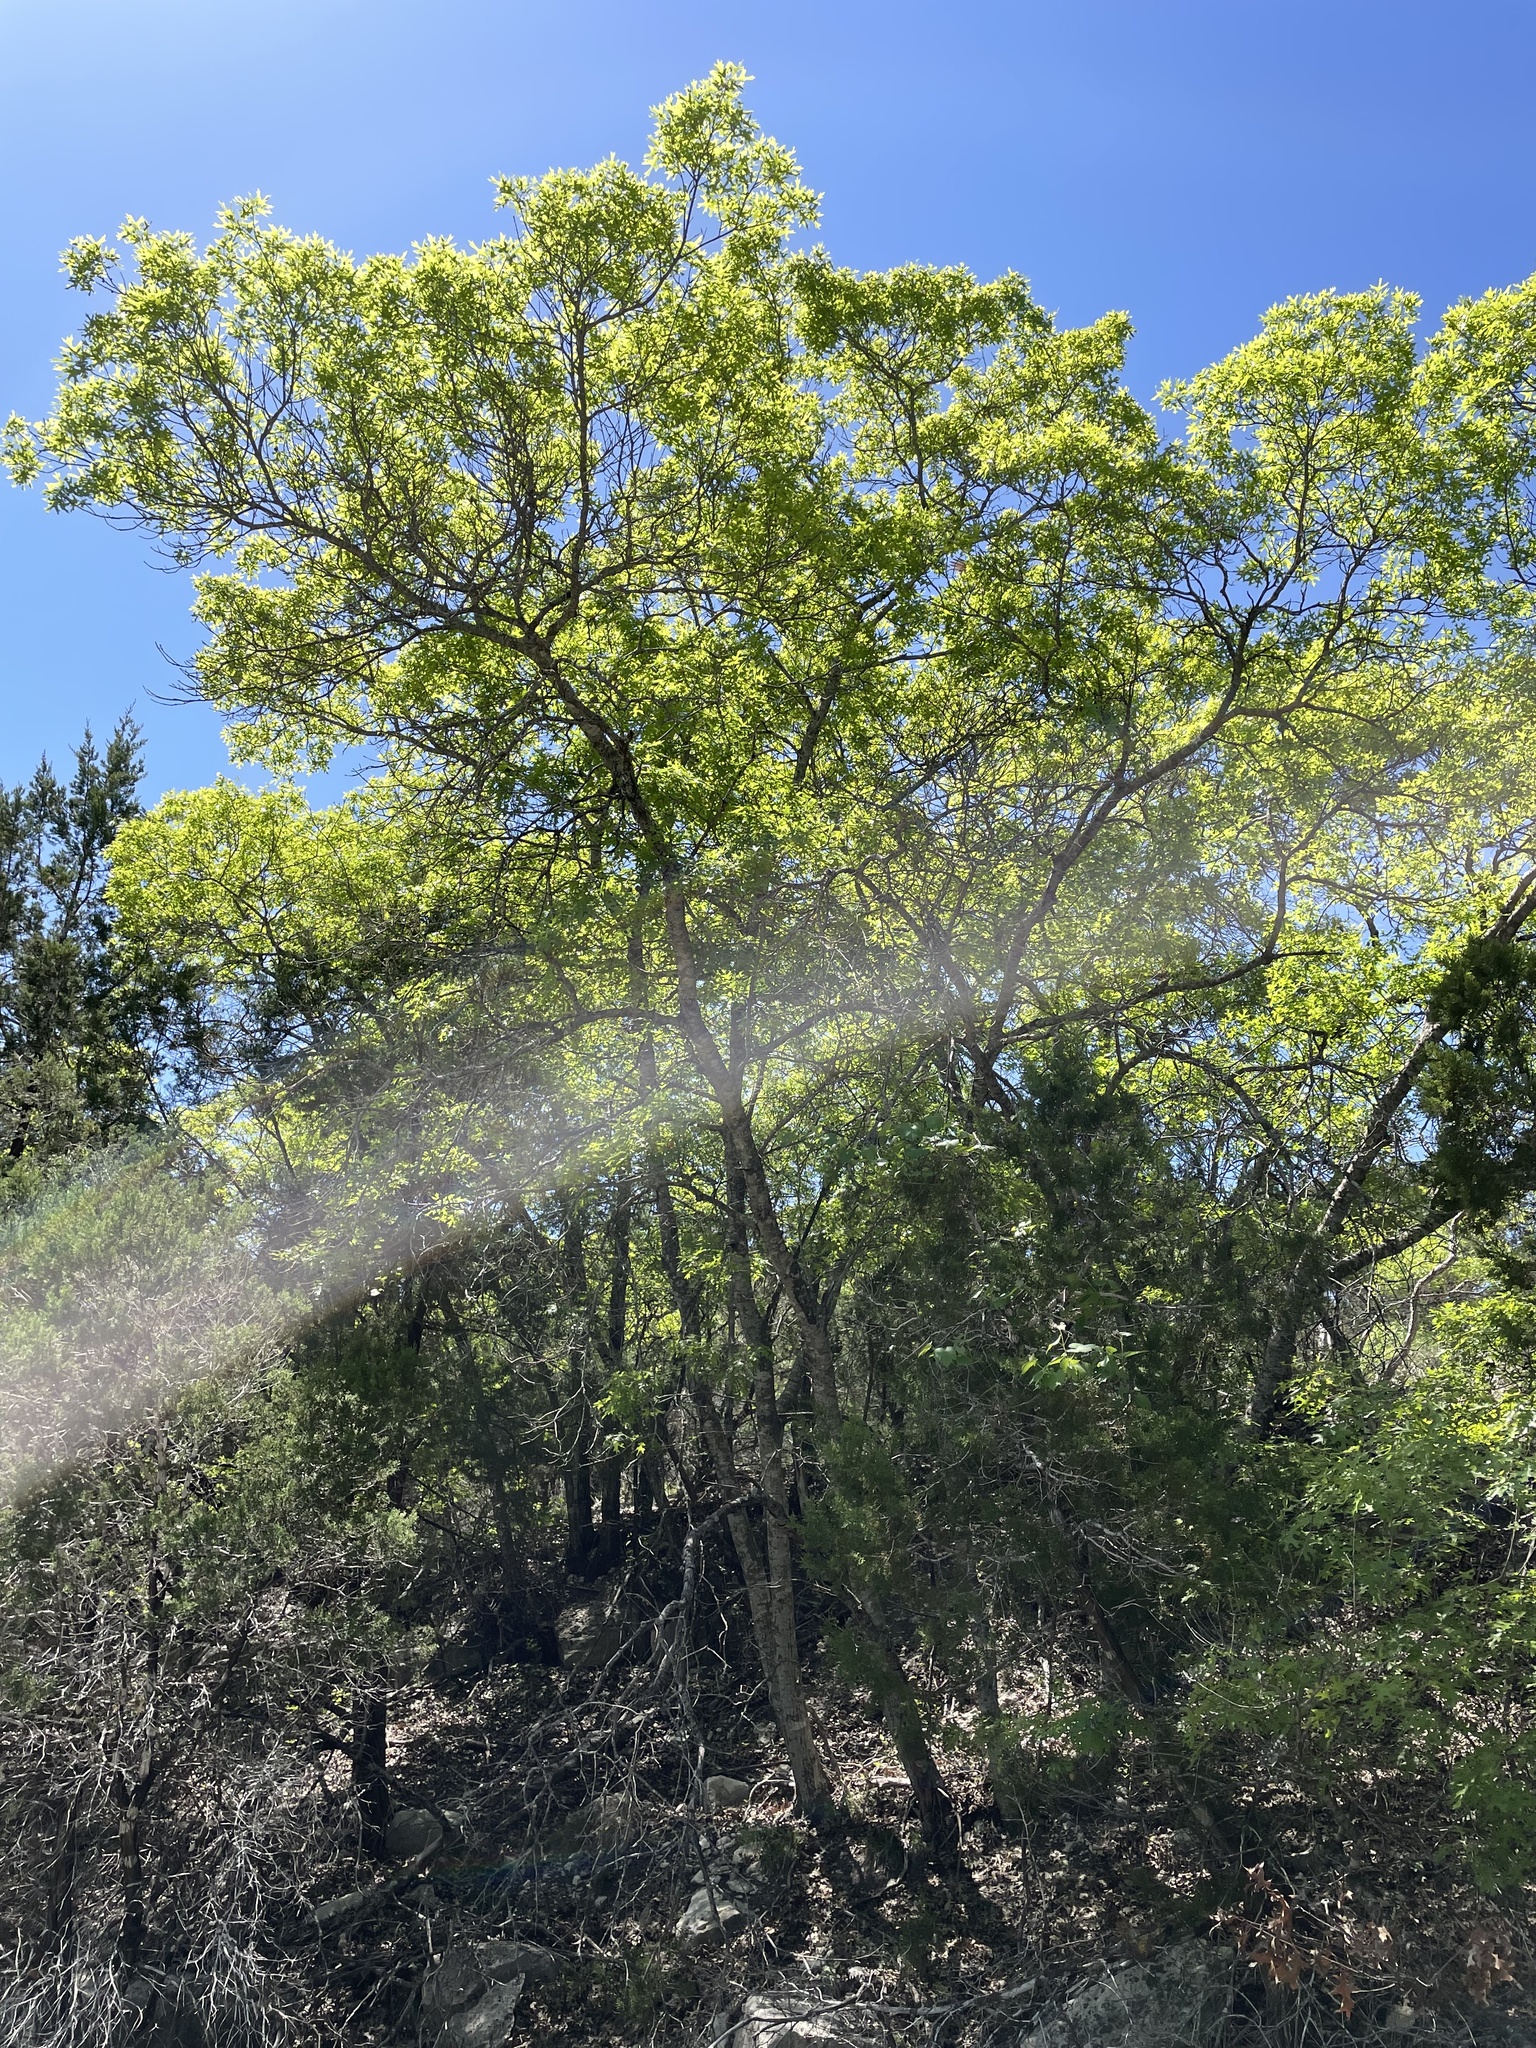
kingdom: Plantae
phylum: Tracheophyta
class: Magnoliopsida
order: Fagales
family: Fagaceae
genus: Quercus
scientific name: Quercus buckleyi
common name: Buckley oak
